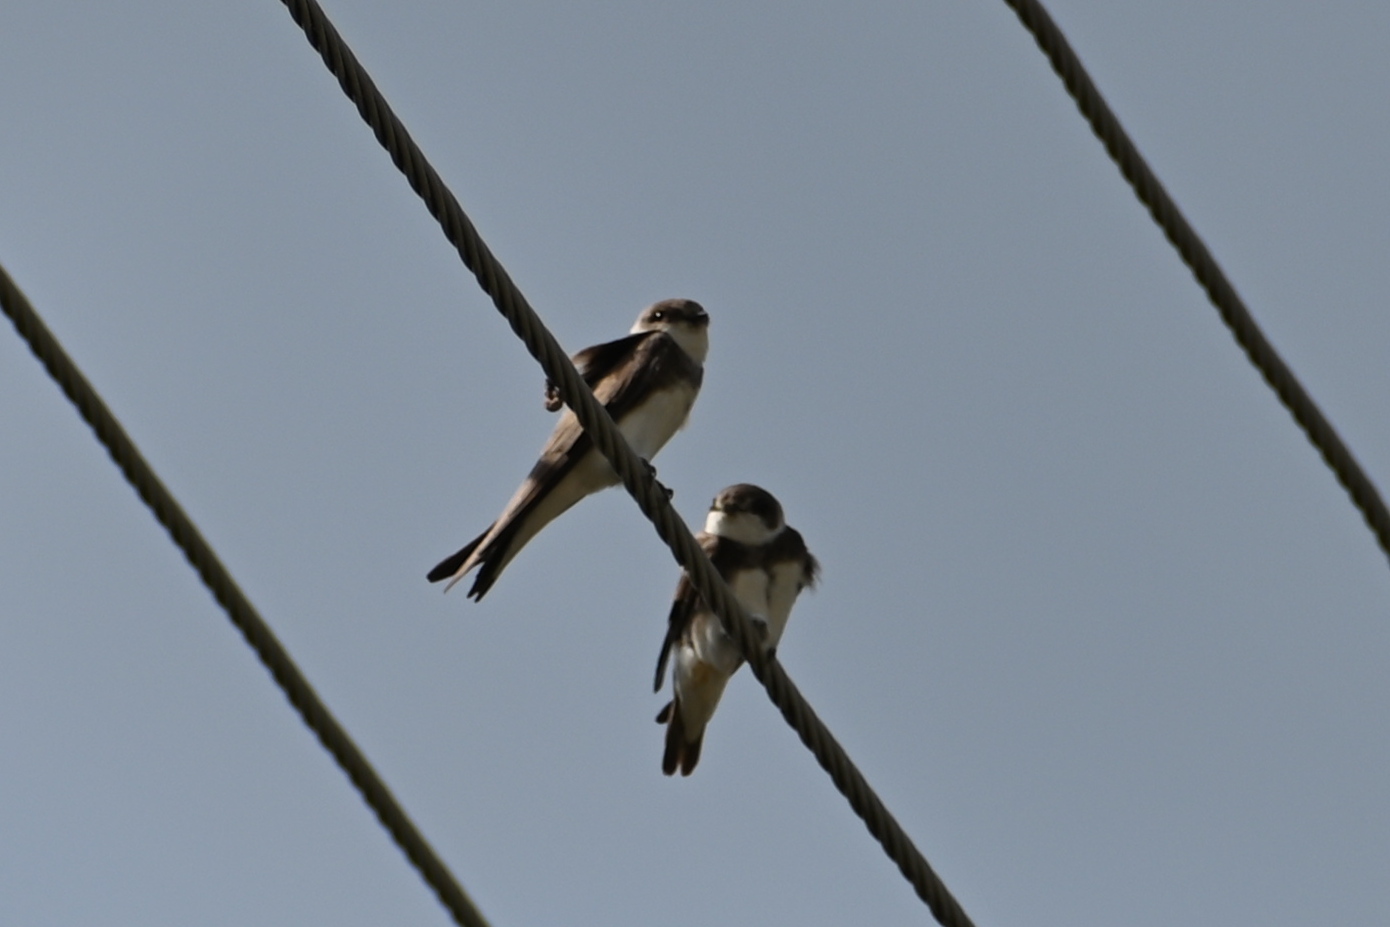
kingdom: Animalia
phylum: Chordata
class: Aves
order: Passeriformes
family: Hirundinidae
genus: Riparia
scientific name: Riparia riparia
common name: Sand martin
